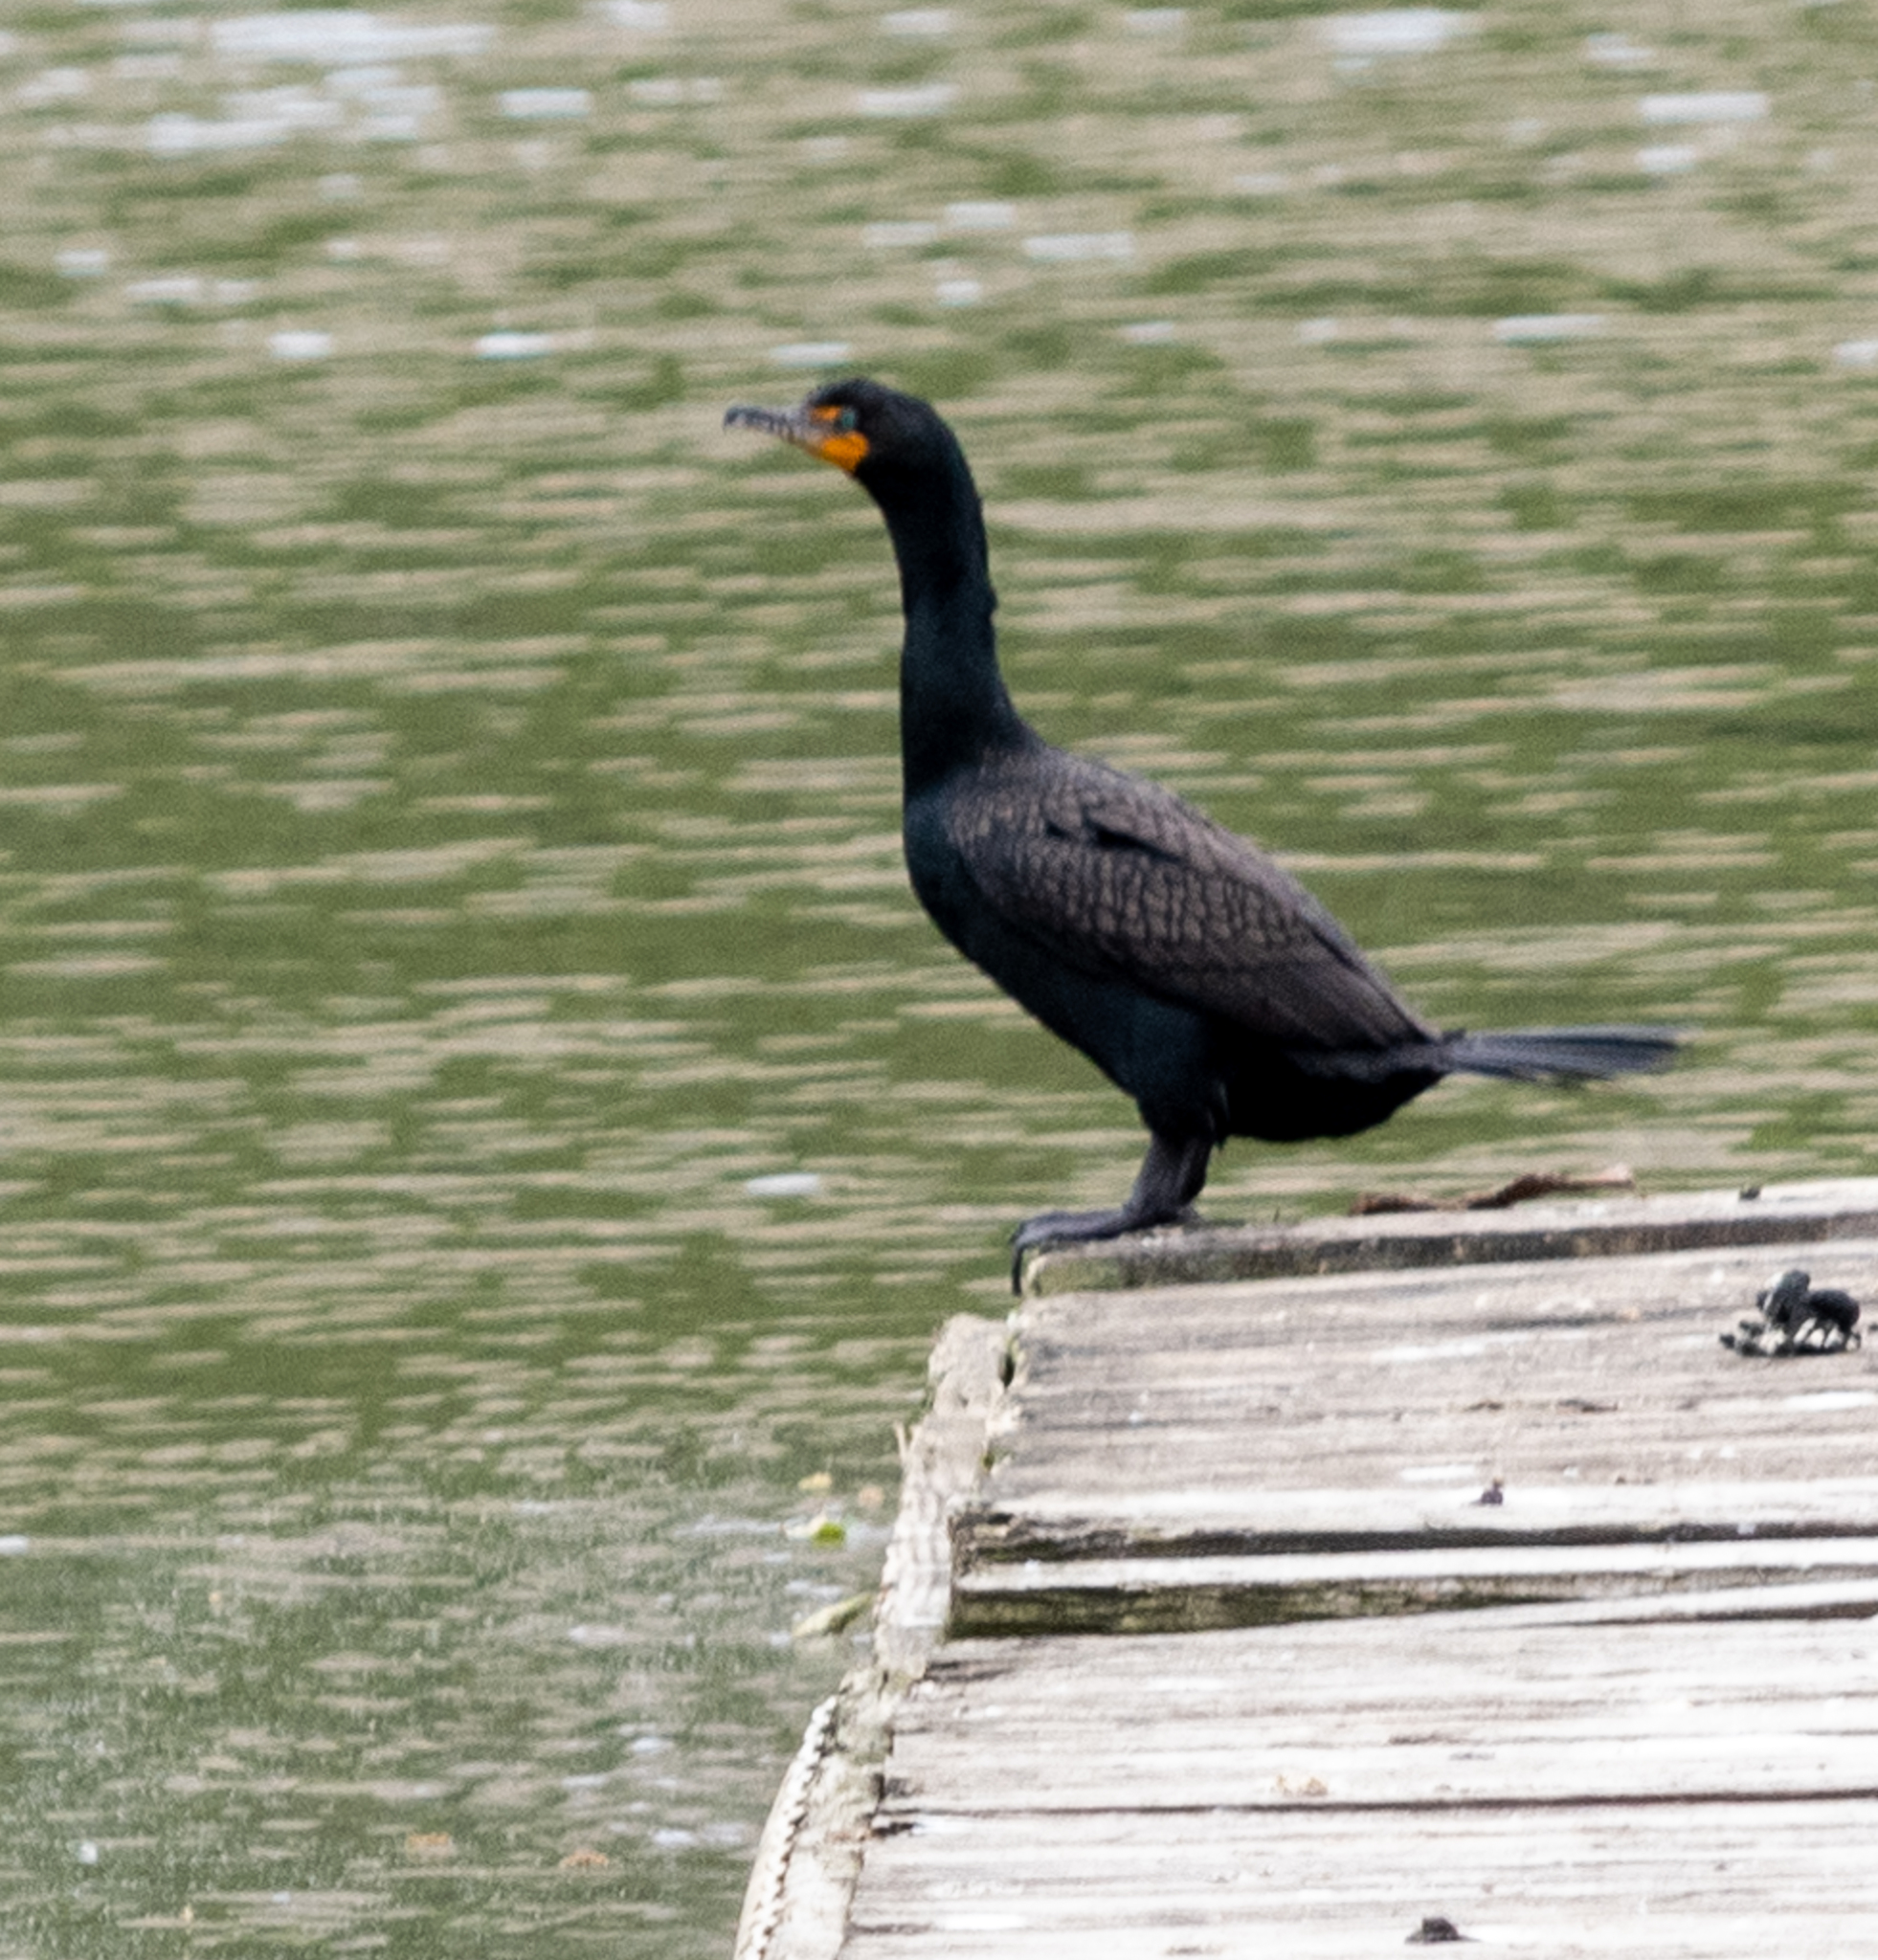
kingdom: Animalia
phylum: Chordata
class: Aves
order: Suliformes
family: Phalacrocoracidae
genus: Phalacrocorax
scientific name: Phalacrocorax auritus
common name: Double-crested cormorant
